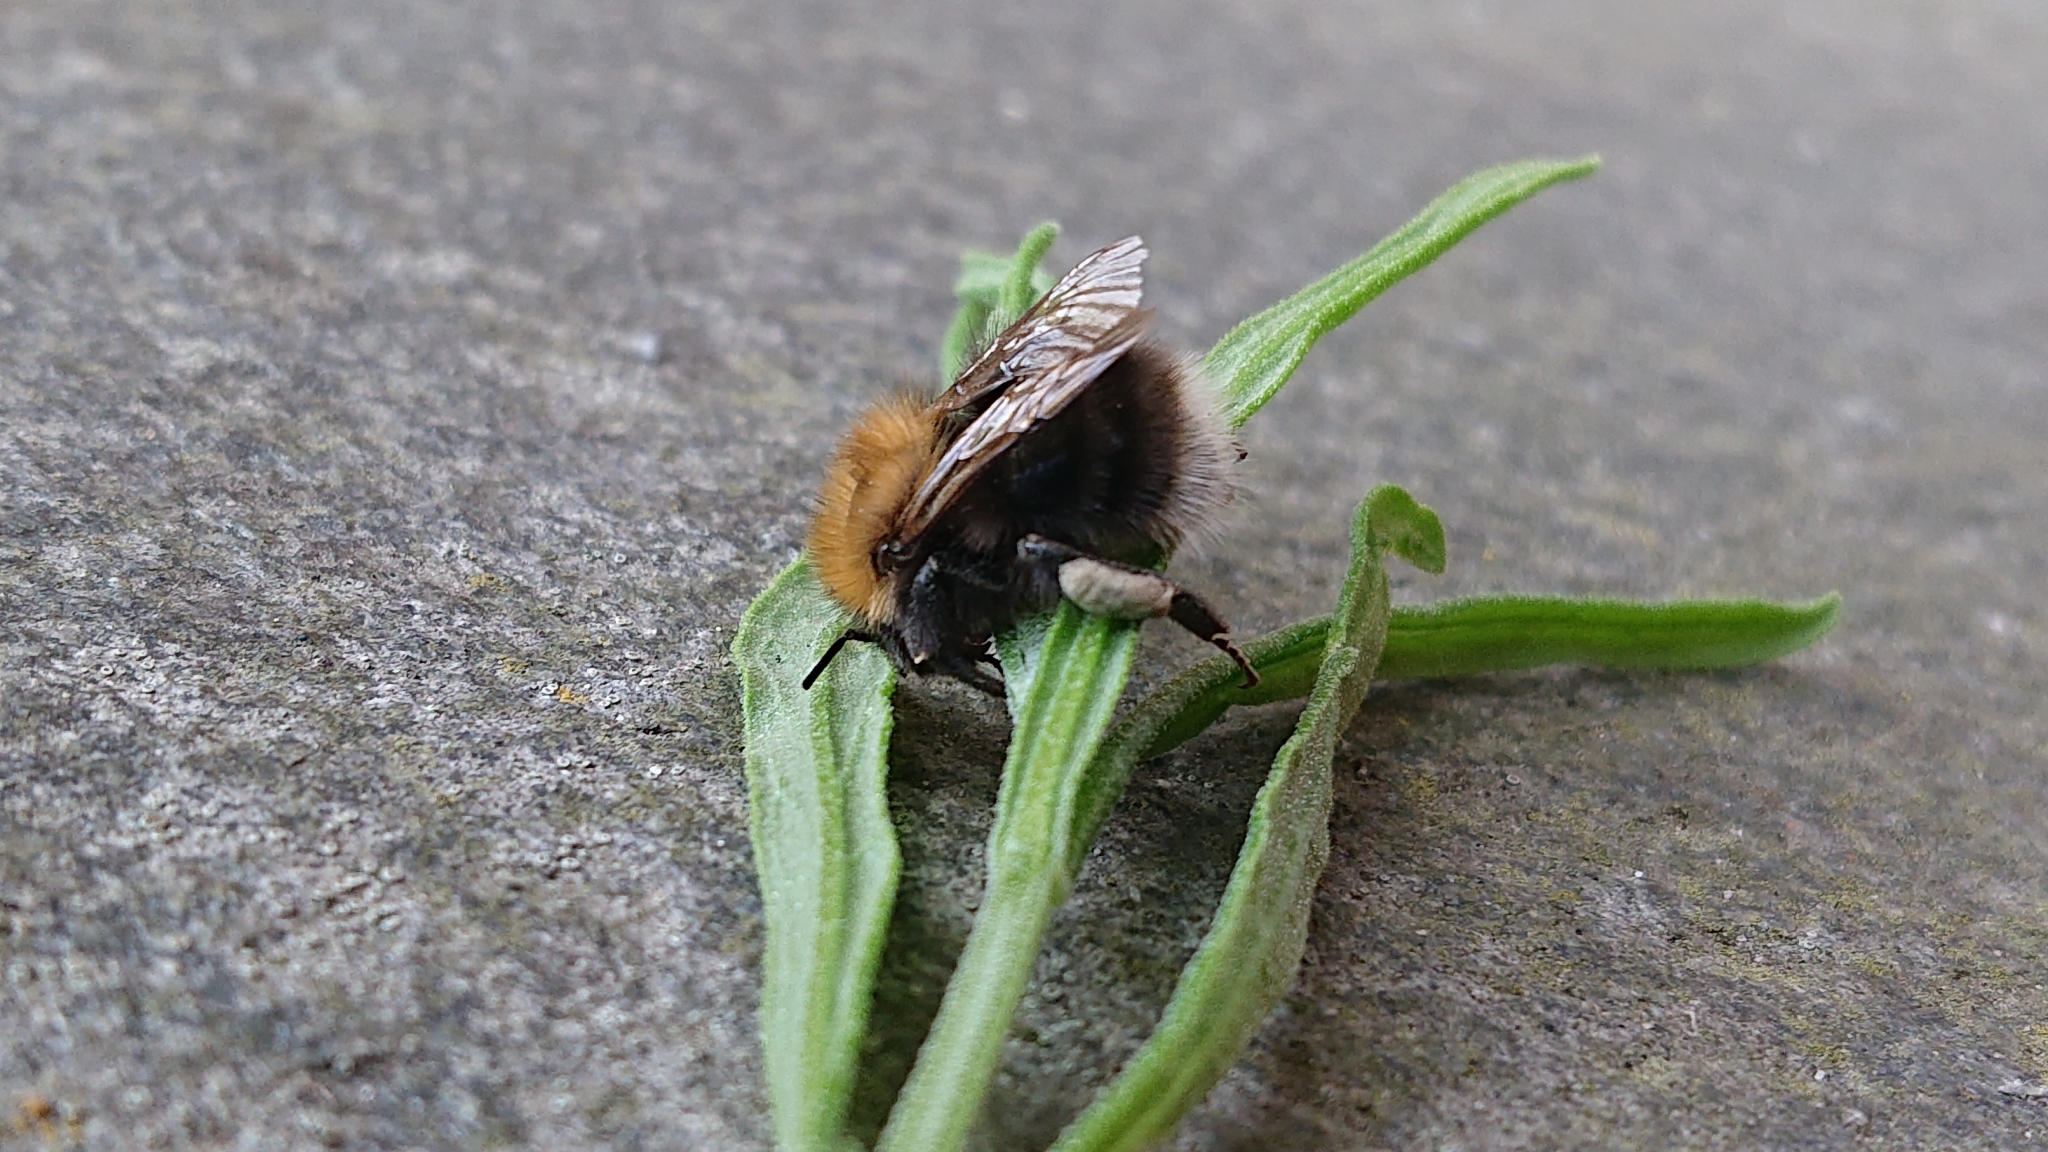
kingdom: Animalia
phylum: Arthropoda
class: Insecta
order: Hymenoptera
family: Apidae
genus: Bombus
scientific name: Bombus hypnorum
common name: New garden bumblebee
